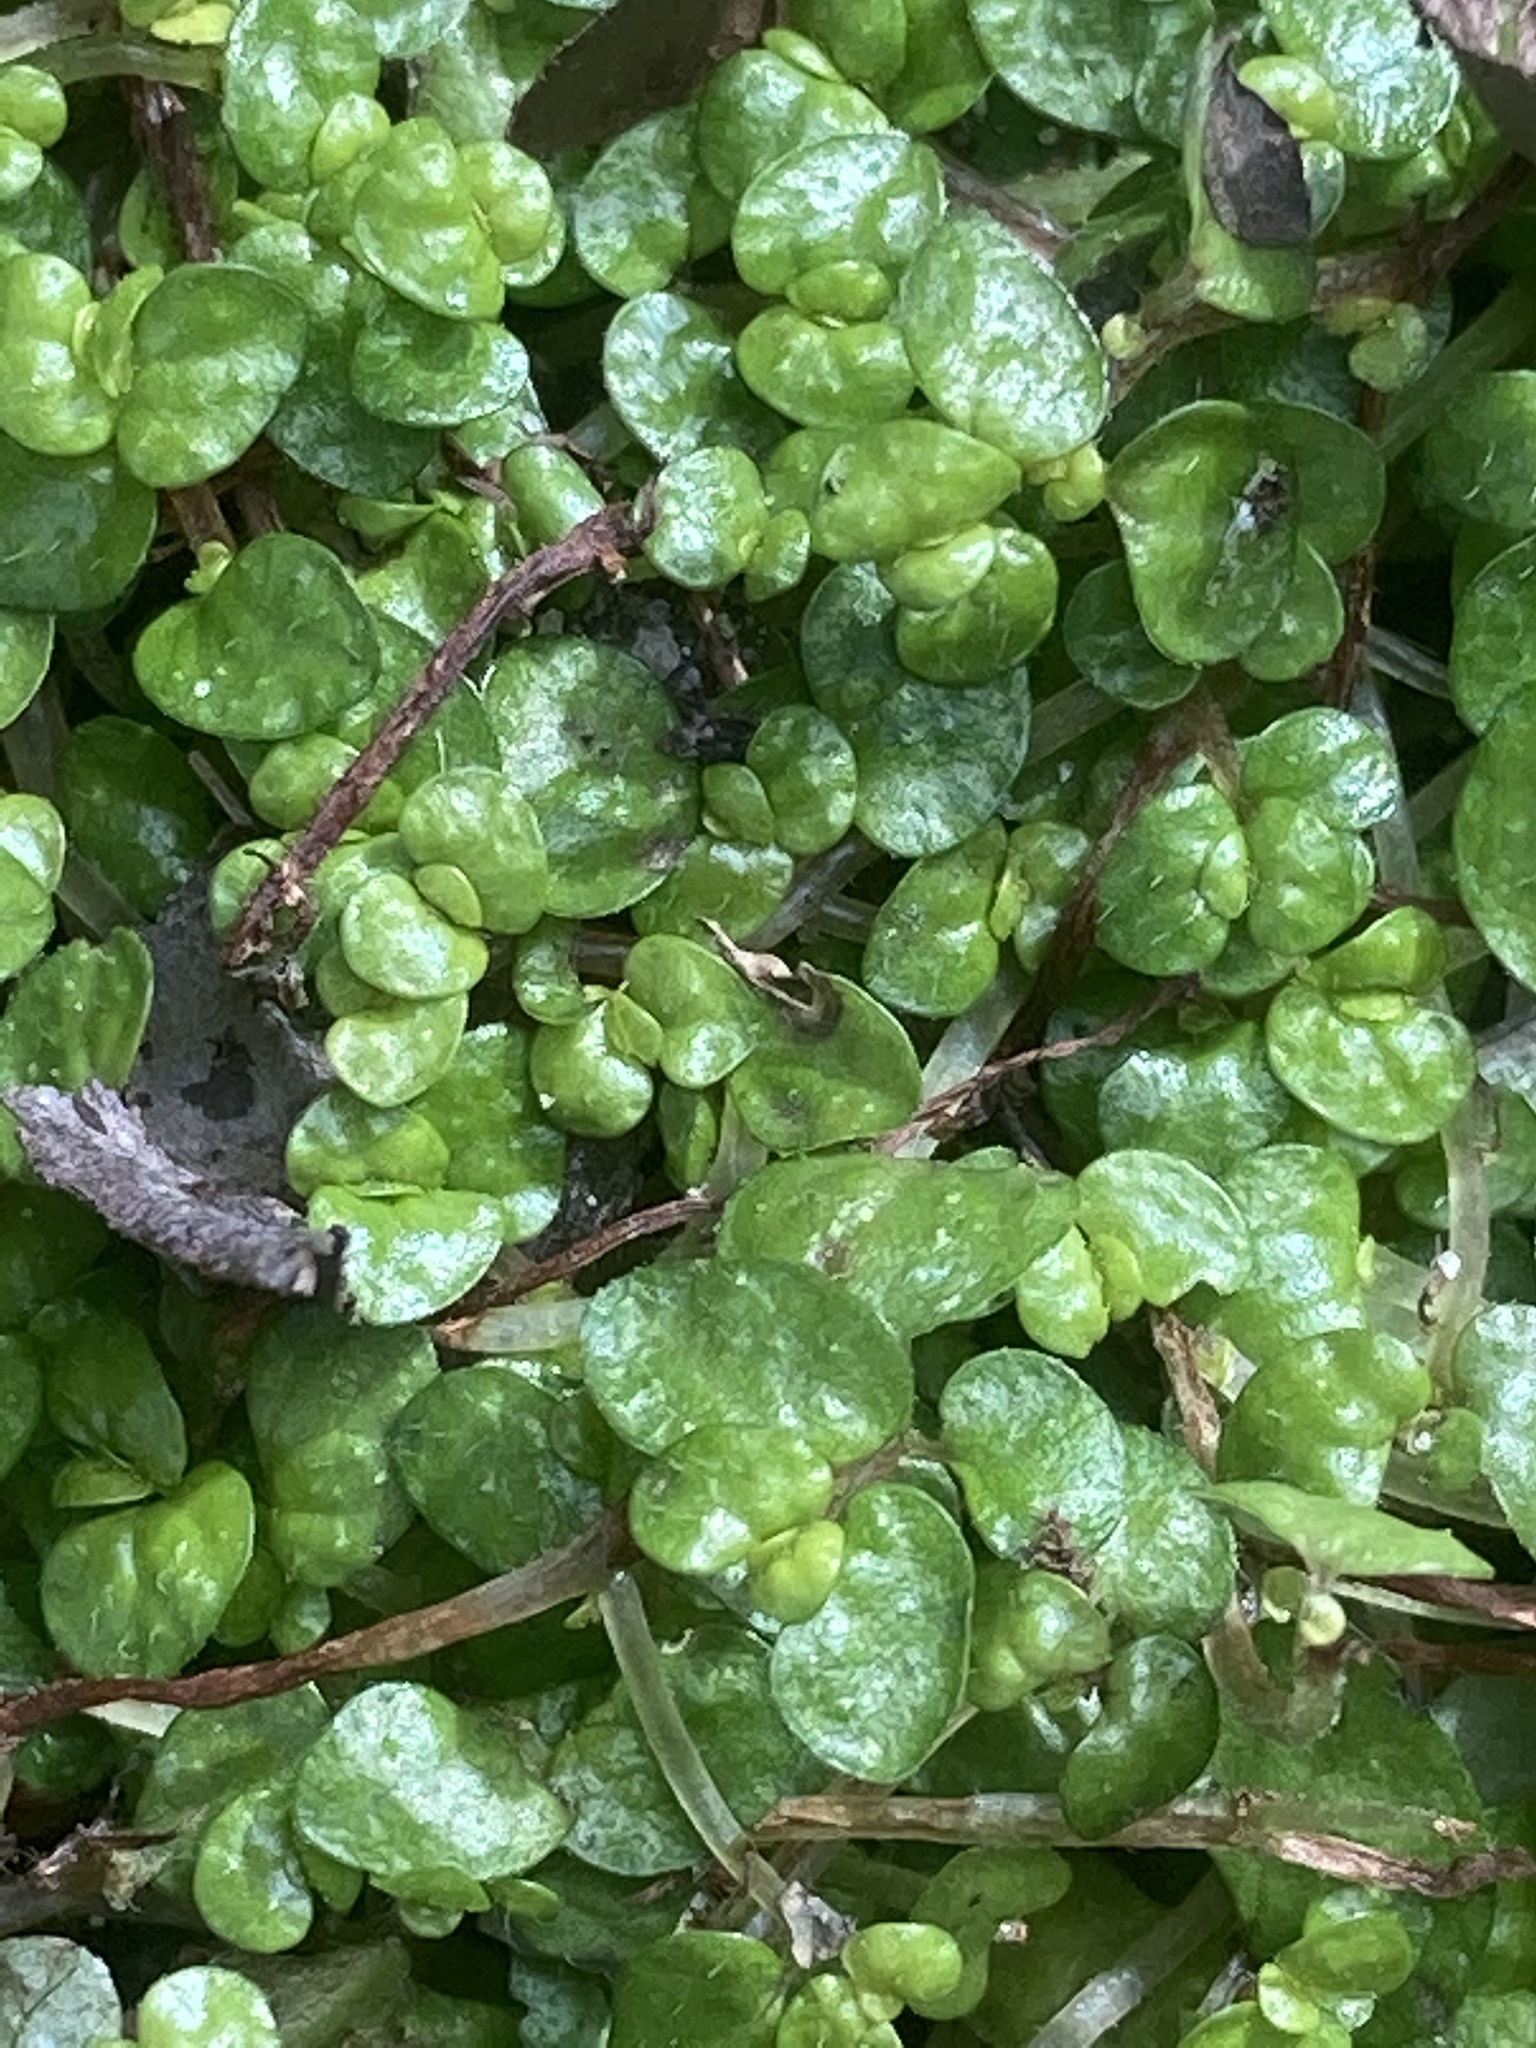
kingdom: Plantae
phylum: Tracheophyta
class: Magnoliopsida
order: Rosales
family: Urticaceae
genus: Soleirolia
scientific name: Soleirolia soleirolii
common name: Mind-your-own-business
